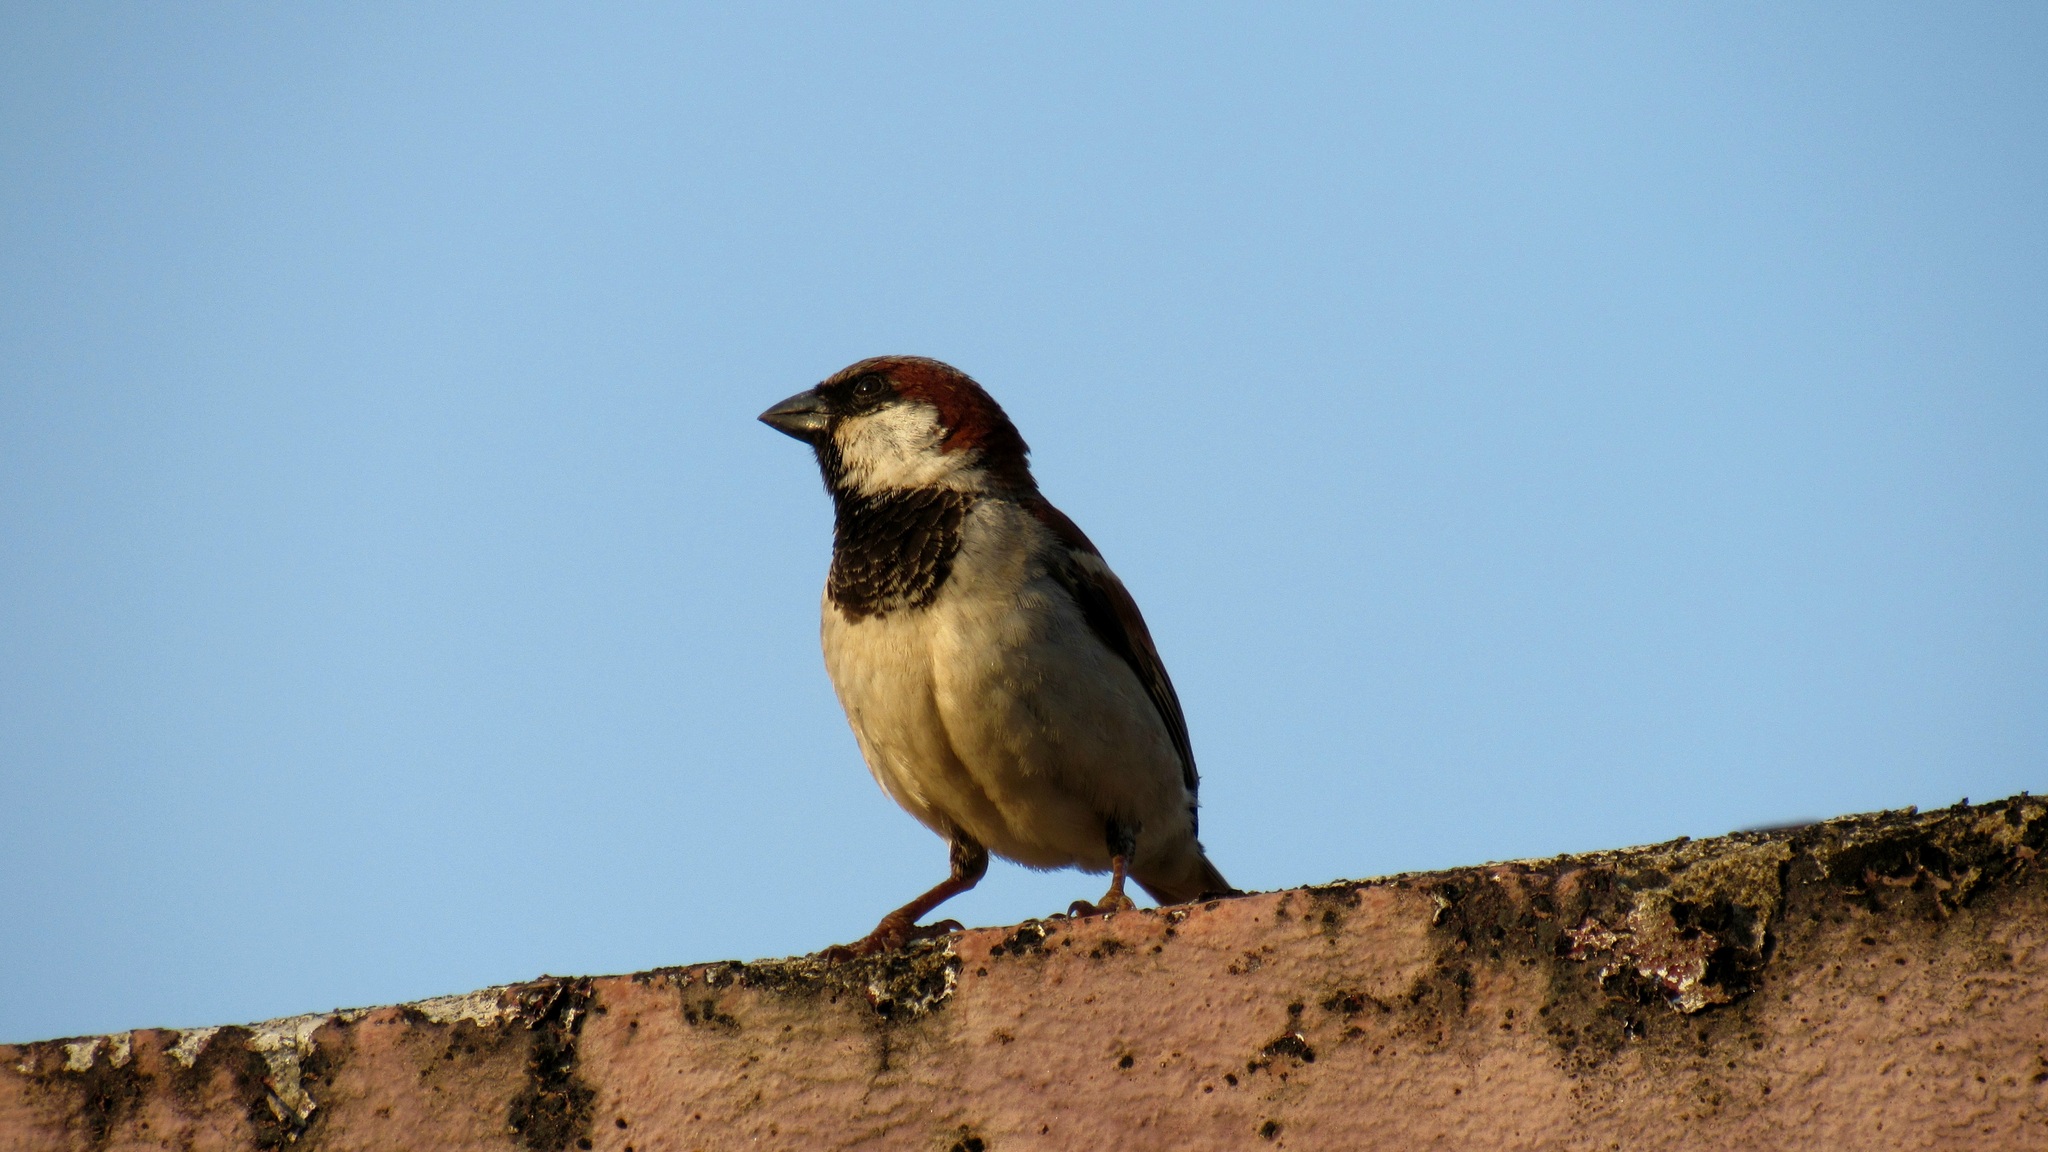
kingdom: Animalia
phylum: Chordata
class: Aves
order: Passeriformes
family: Passeridae
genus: Passer
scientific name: Passer domesticus
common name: House sparrow
